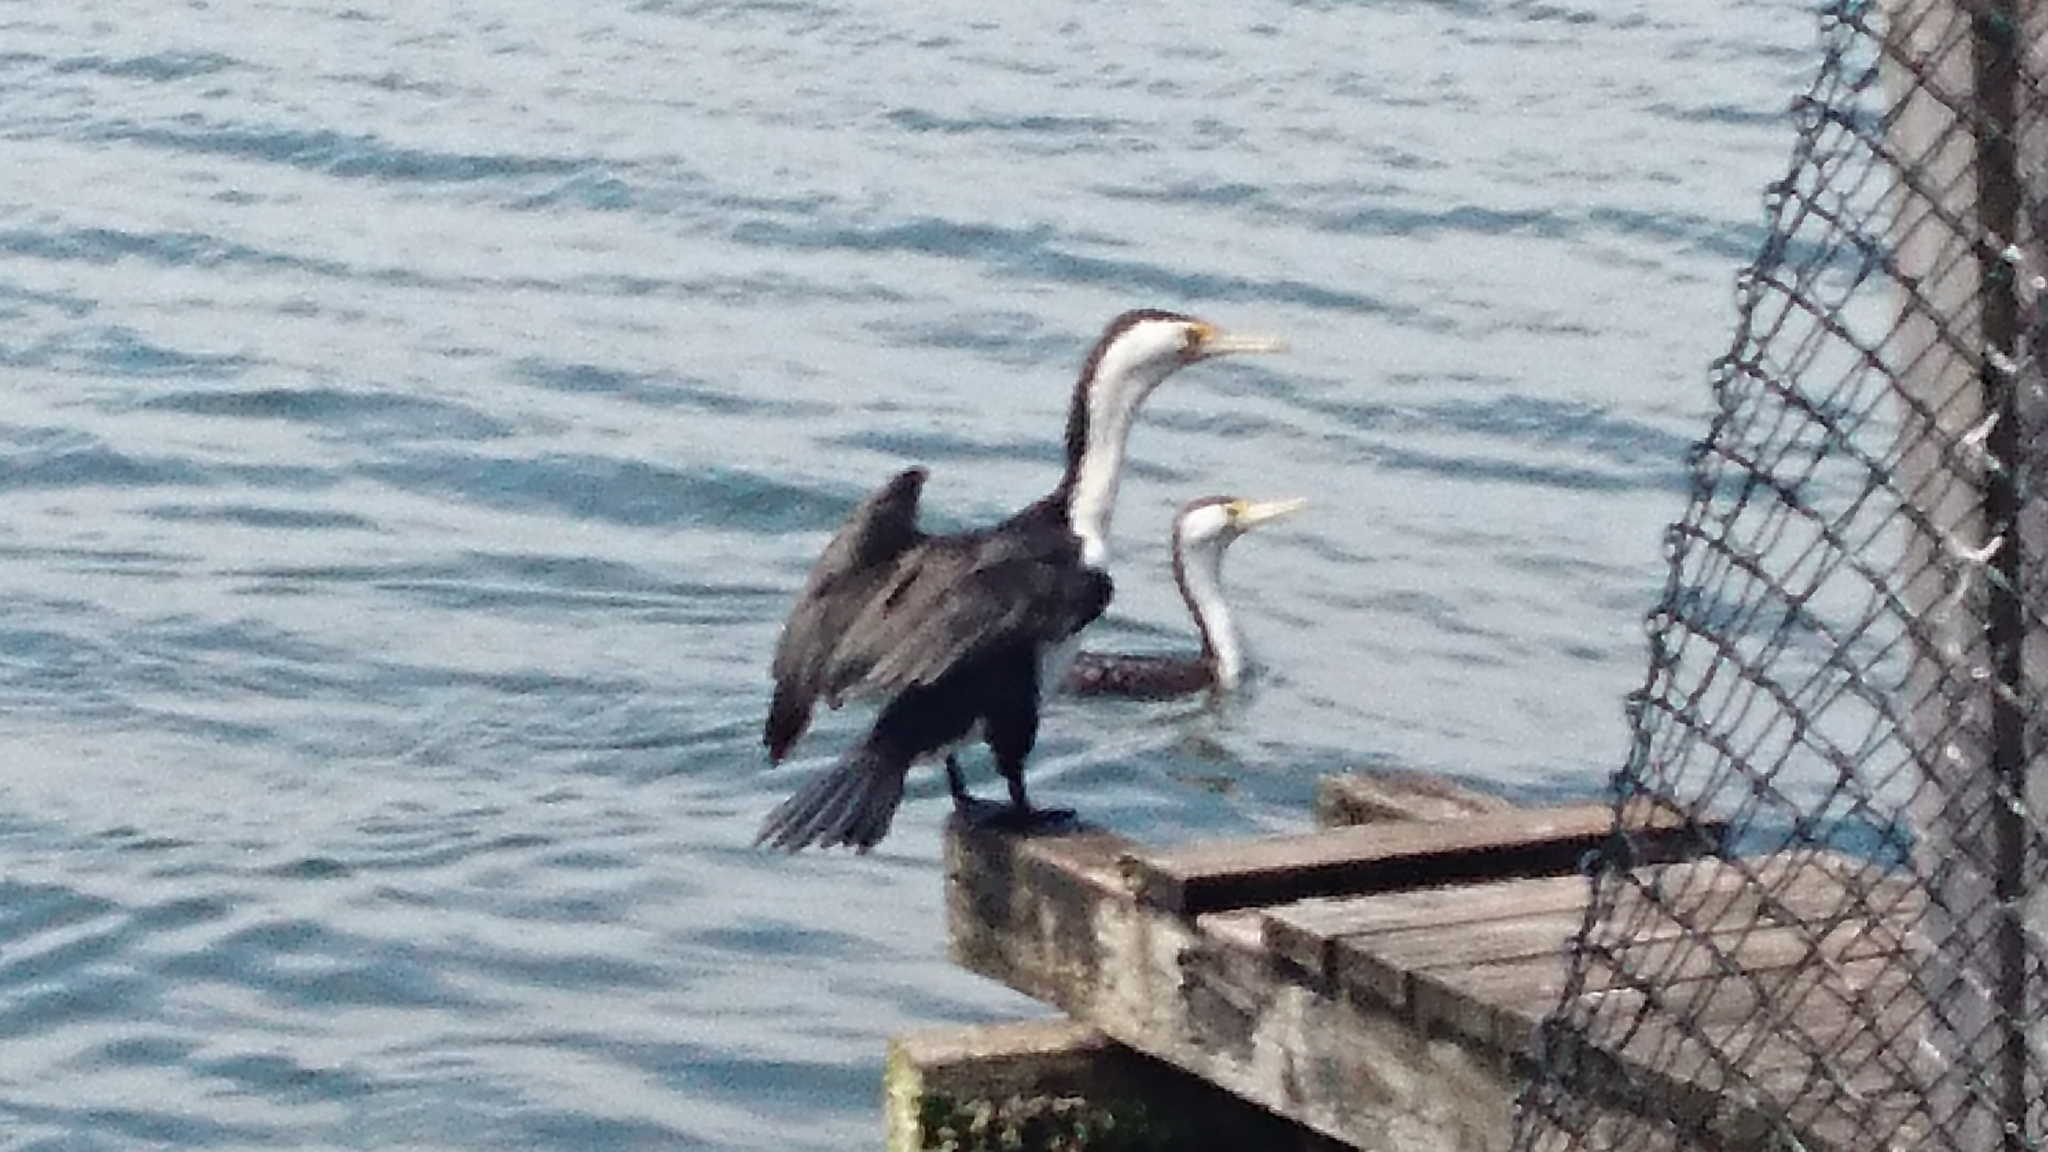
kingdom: Animalia
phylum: Chordata
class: Aves
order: Suliformes
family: Phalacrocoracidae
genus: Phalacrocorax
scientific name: Phalacrocorax varius
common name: Pied cormorant
